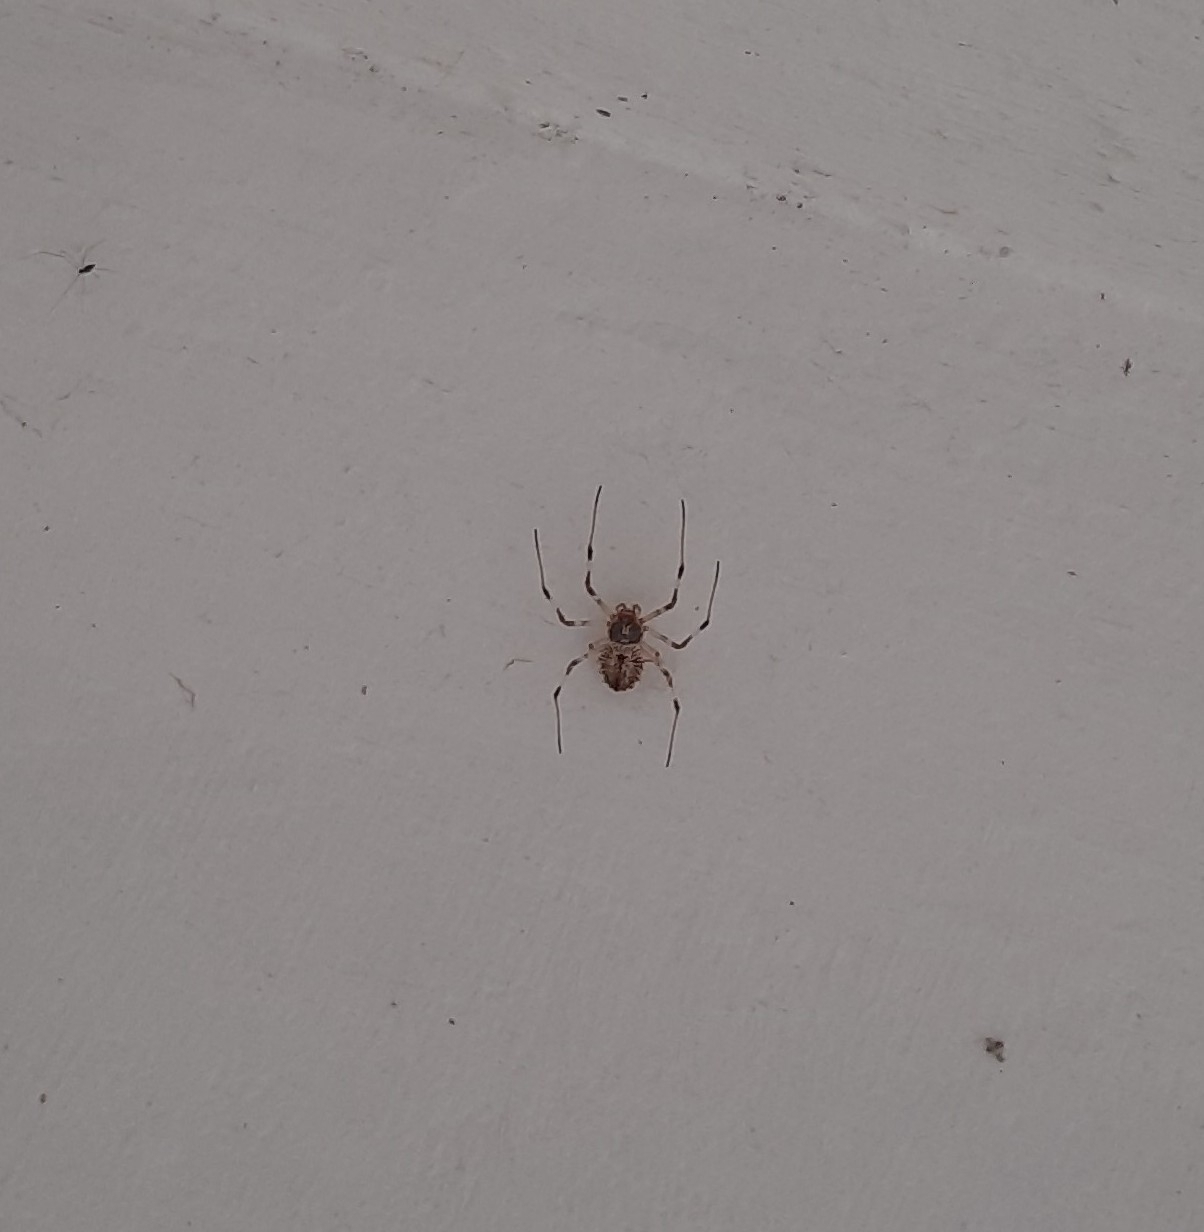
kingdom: Animalia
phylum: Arthropoda
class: Arachnida
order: Araneae
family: Araneidae
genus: Herennia
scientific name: Herennia multipuncta
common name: Spotted coin spider
